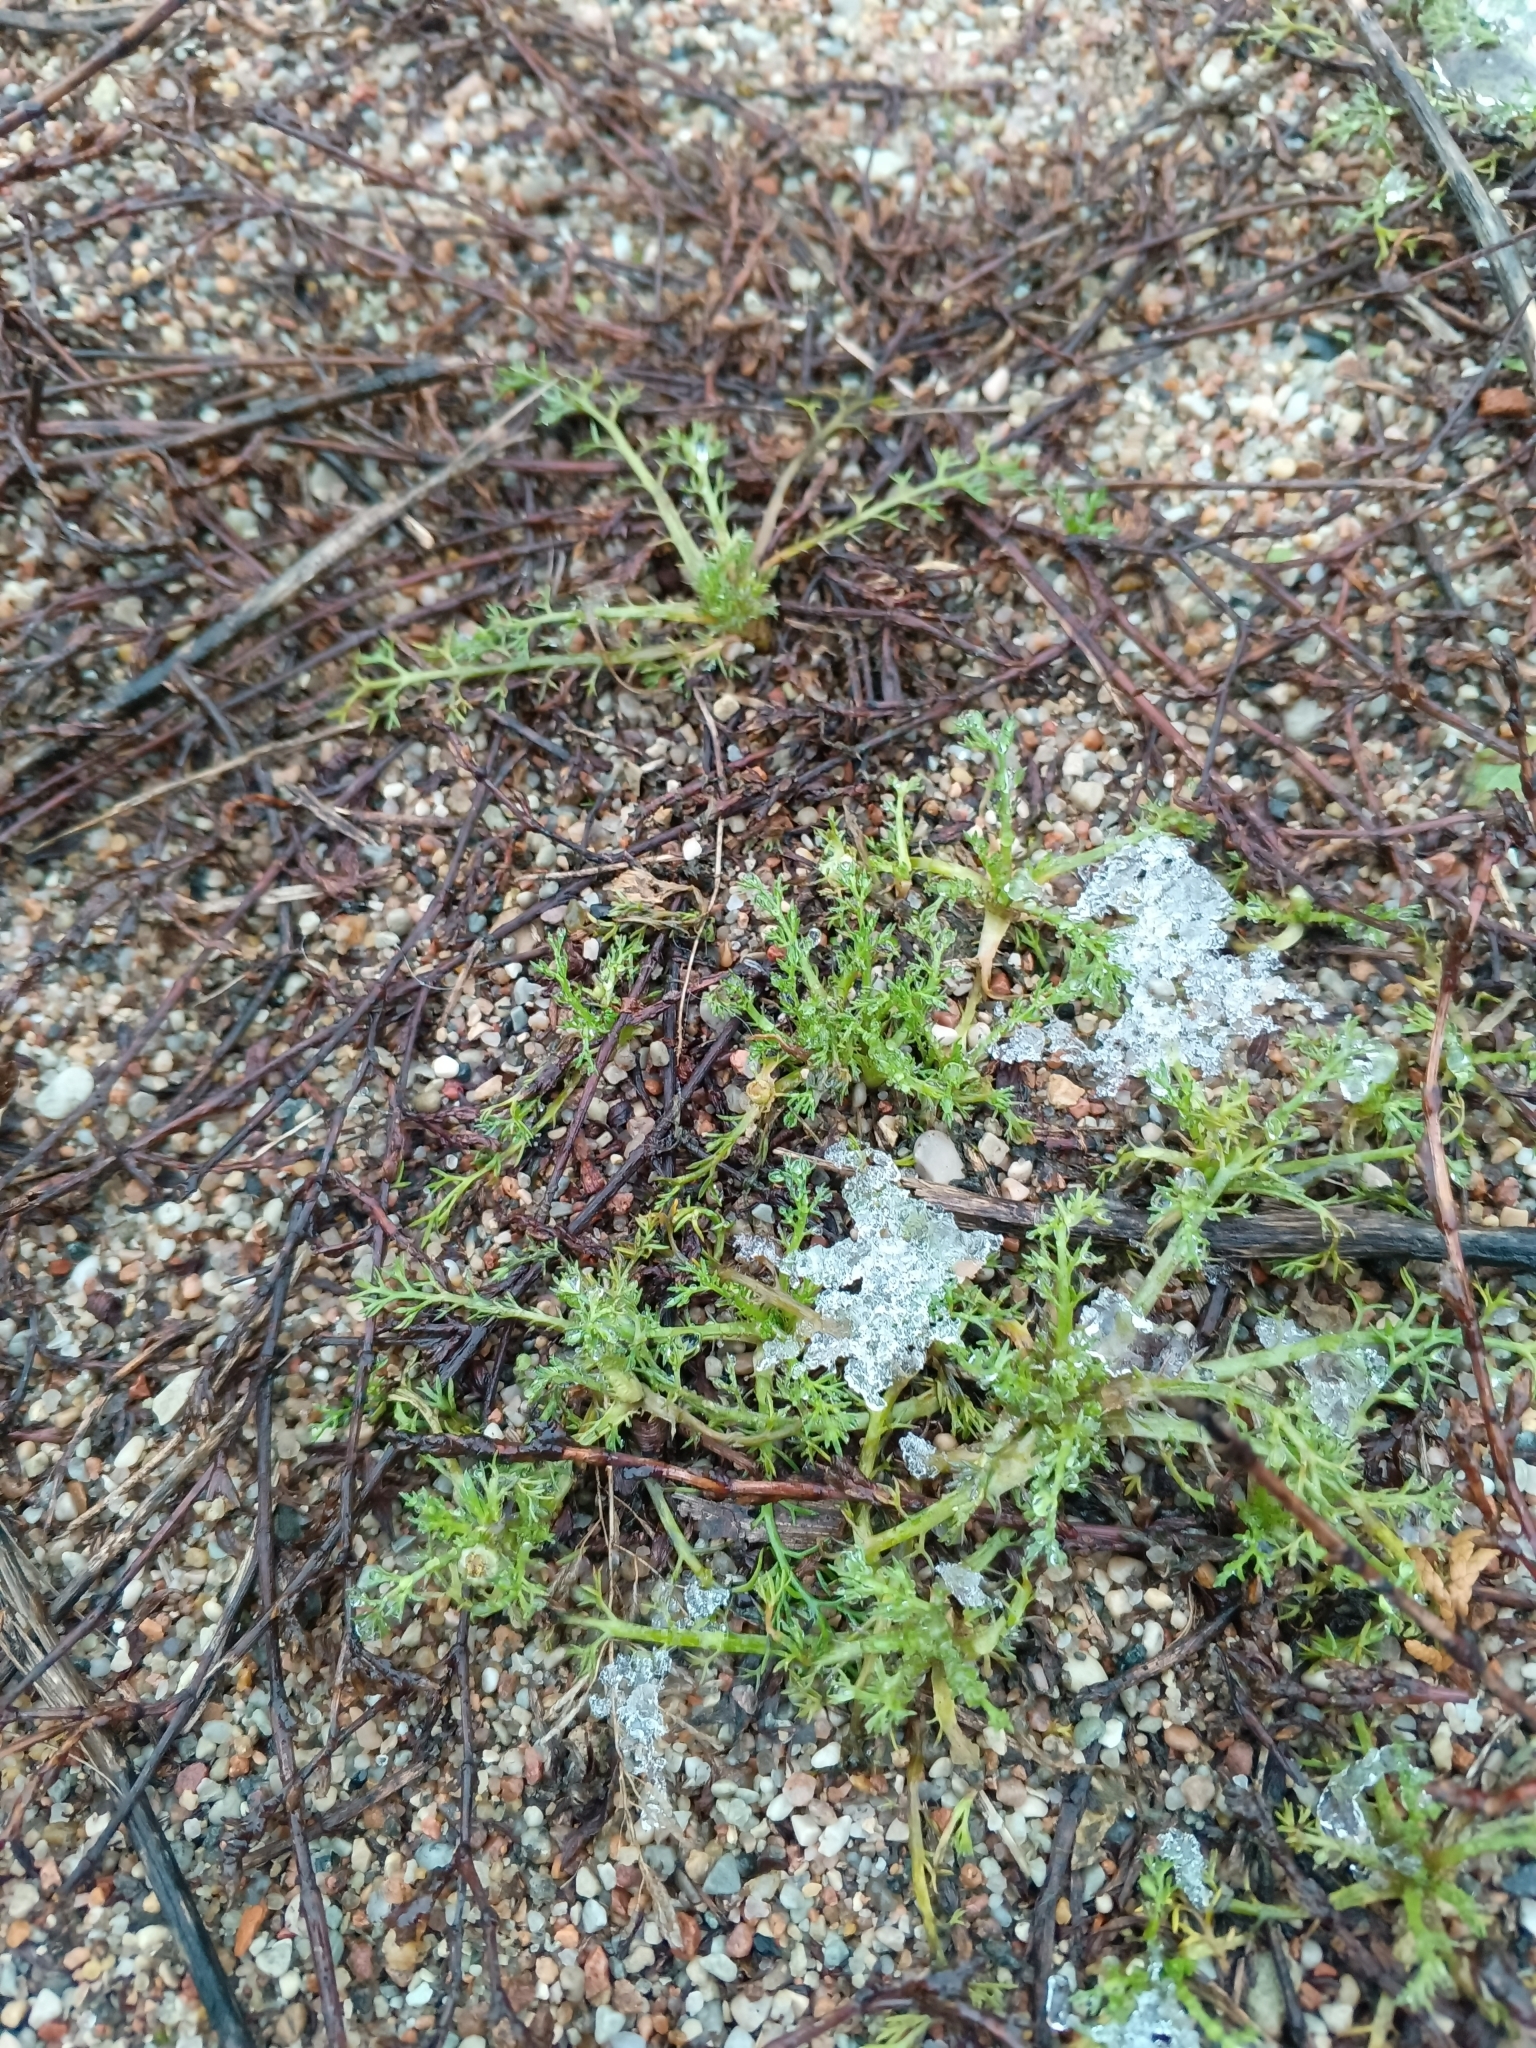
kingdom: Plantae
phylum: Tracheophyta
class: Magnoliopsida
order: Asterales
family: Asteraceae
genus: Matricaria
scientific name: Matricaria discoidea
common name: Disc mayweed
